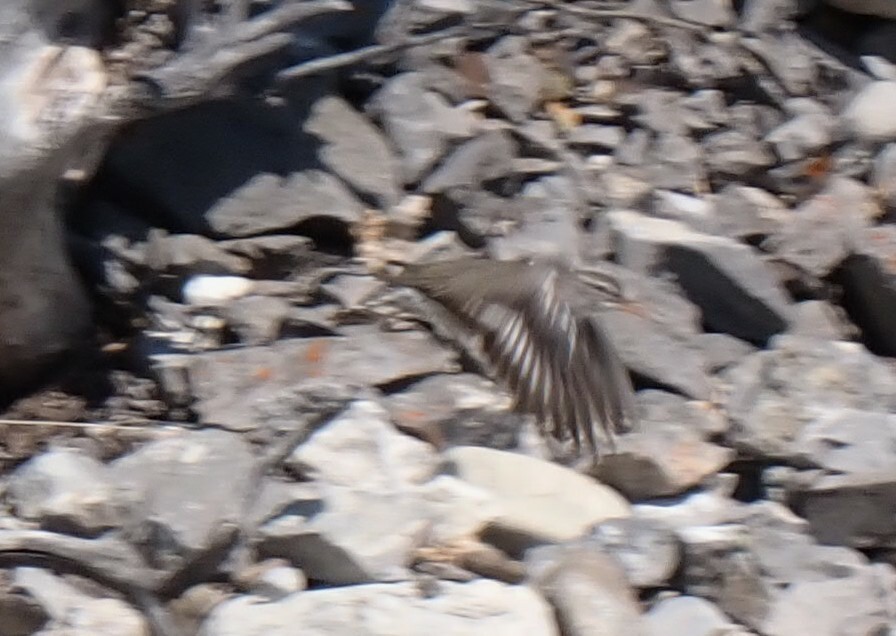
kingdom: Animalia
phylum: Chordata
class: Aves
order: Charadriiformes
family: Scolopacidae
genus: Actitis
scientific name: Actitis macularius
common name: Spotted sandpiper
